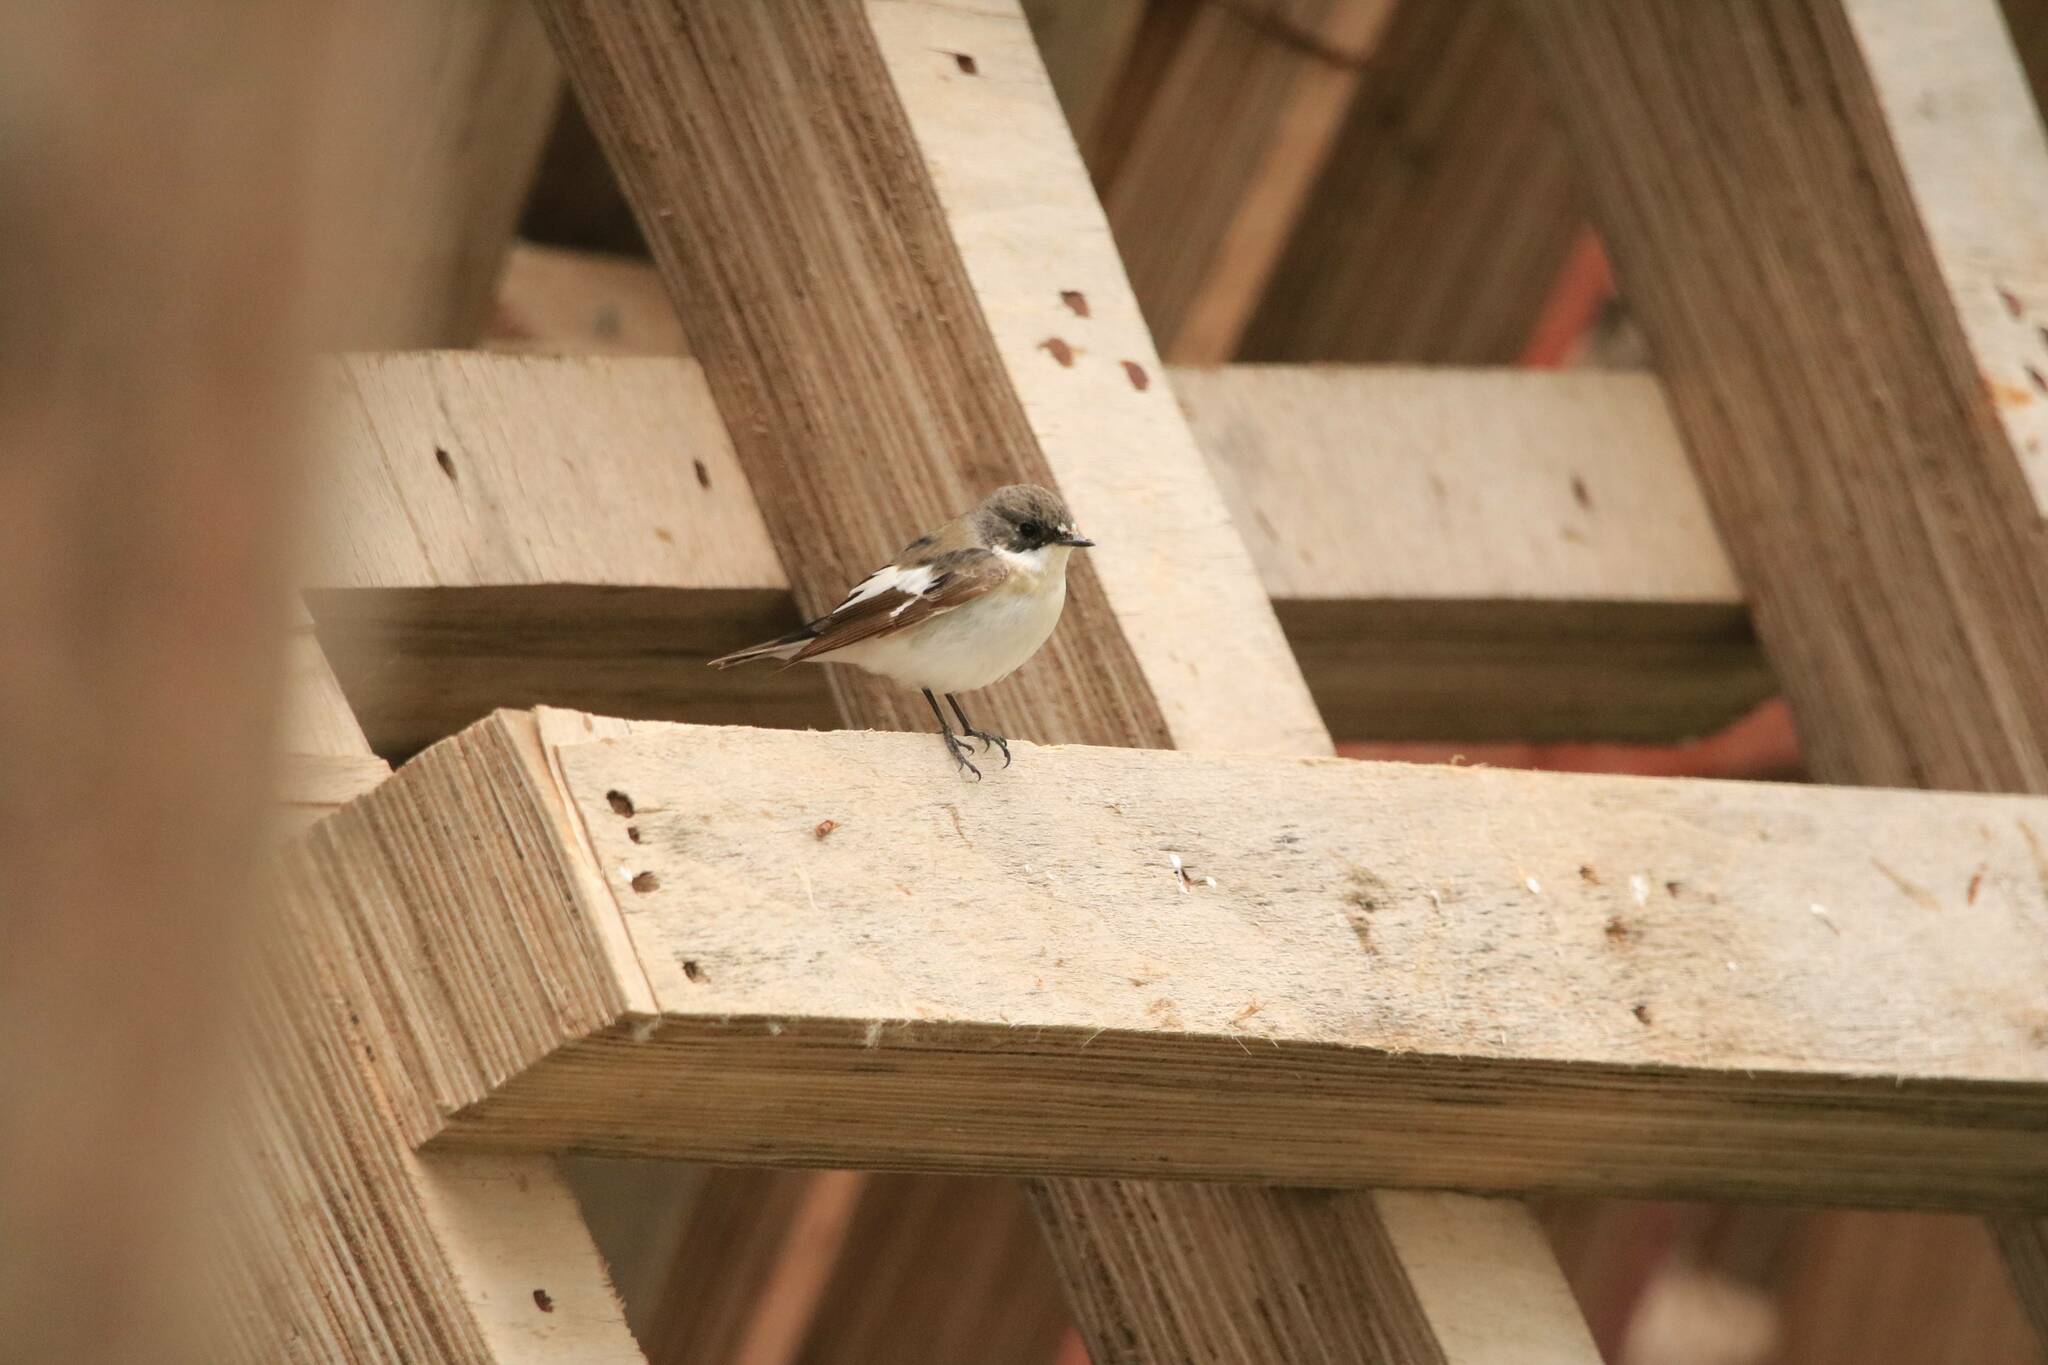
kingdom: Animalia
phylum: Chordata
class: Aves
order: Passeriformes
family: Muscicapidae
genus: Ficedula
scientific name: Ficedula hypoleuca
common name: European pied flycatcher
